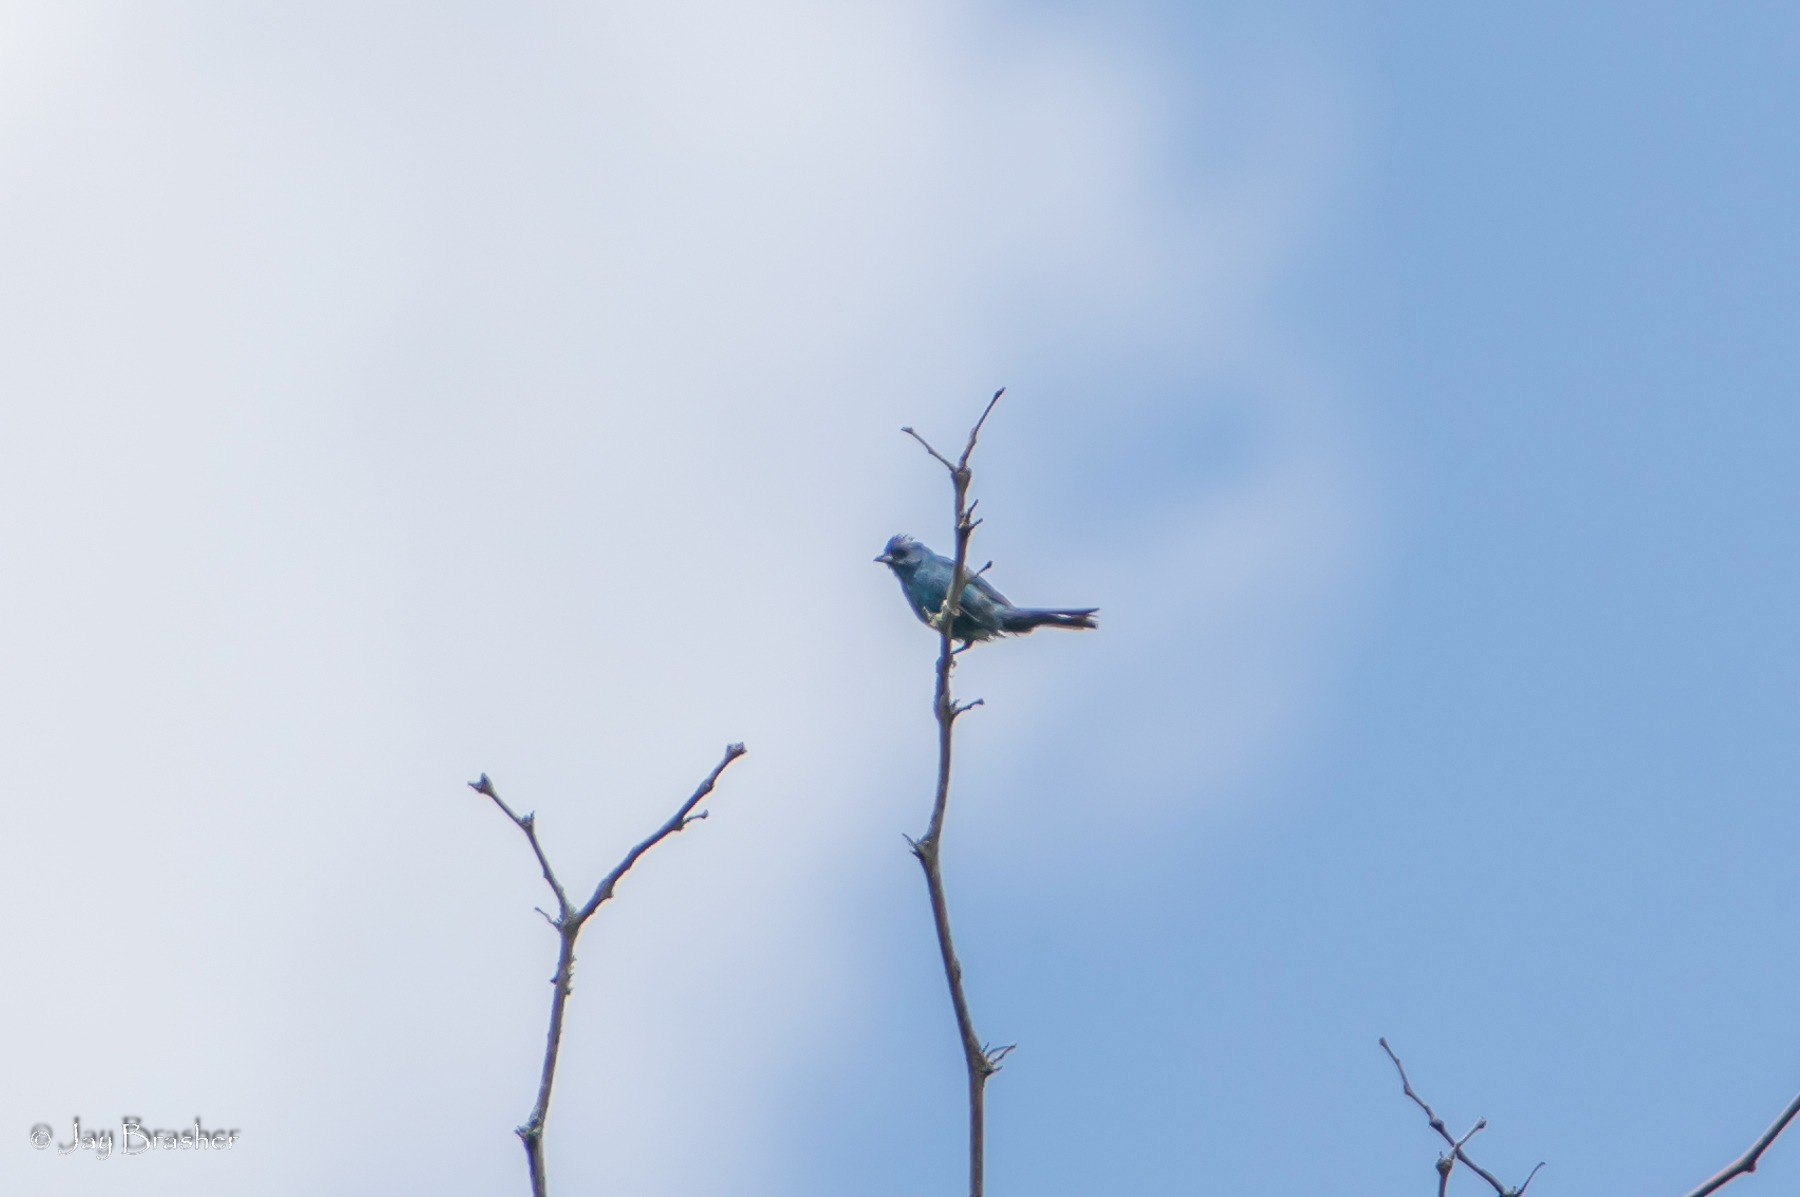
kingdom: Animalia
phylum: Chordata
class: Aves
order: Passeriformes
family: Cardinalidae
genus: Passerina
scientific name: Passerina cyanea
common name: Indigo bunting
